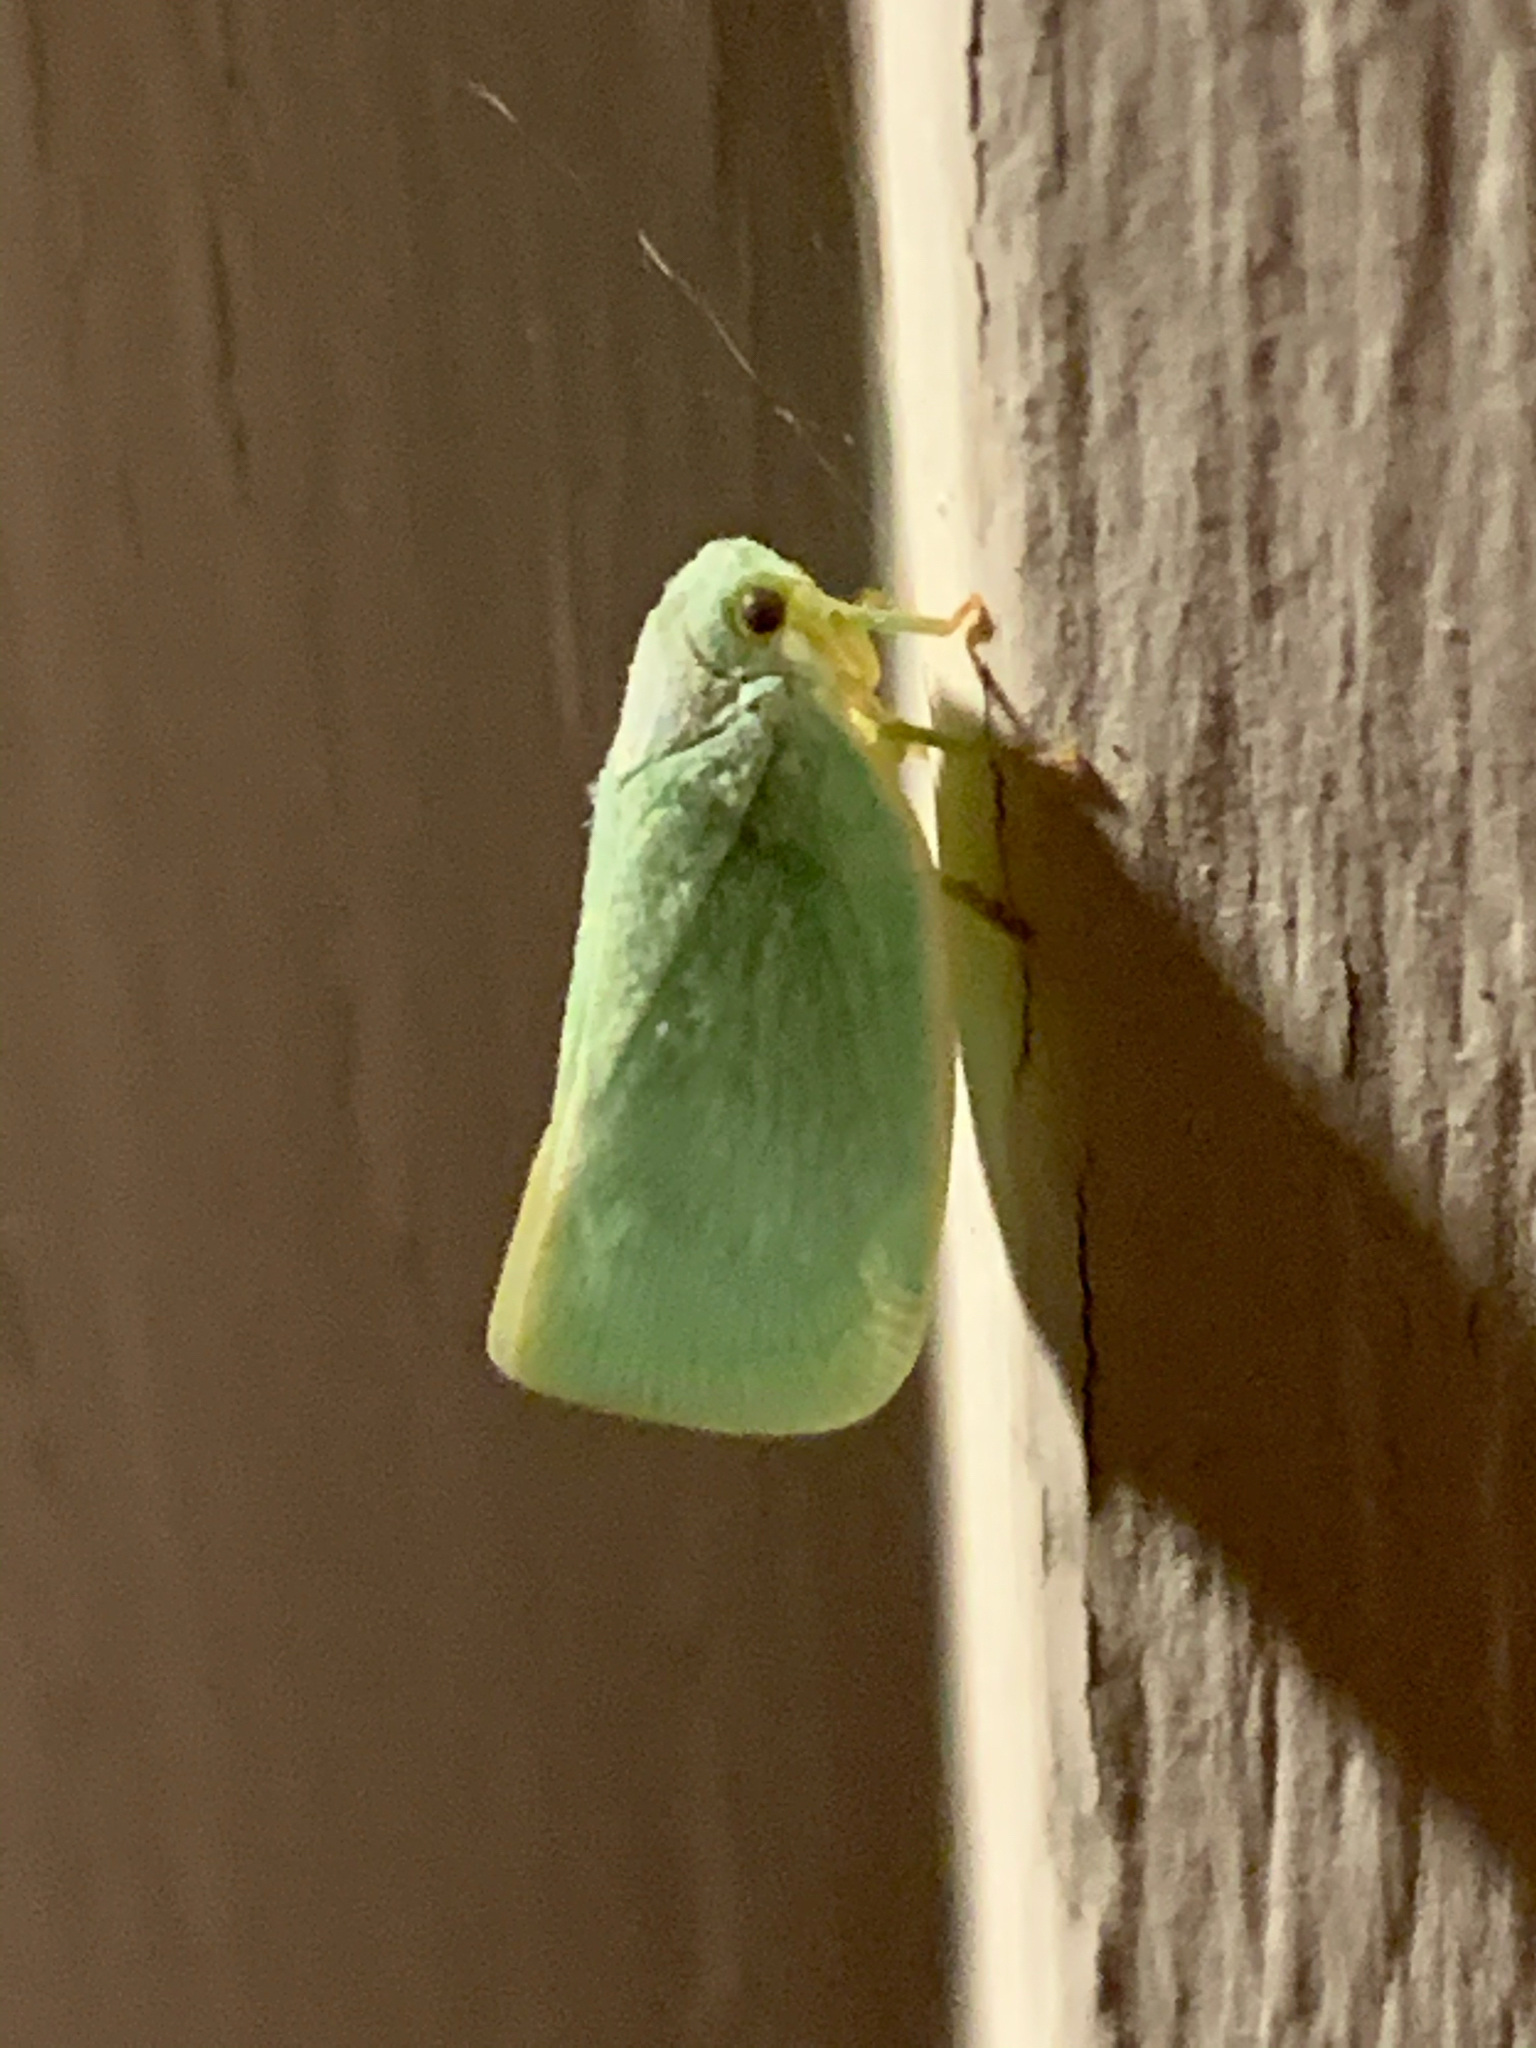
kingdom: Animalia
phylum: Arthropoda
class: Insecta
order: Hemiptera
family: Flatidae
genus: Flatormenis
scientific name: Flatormenis proxima
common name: Northern flatid planthopper
